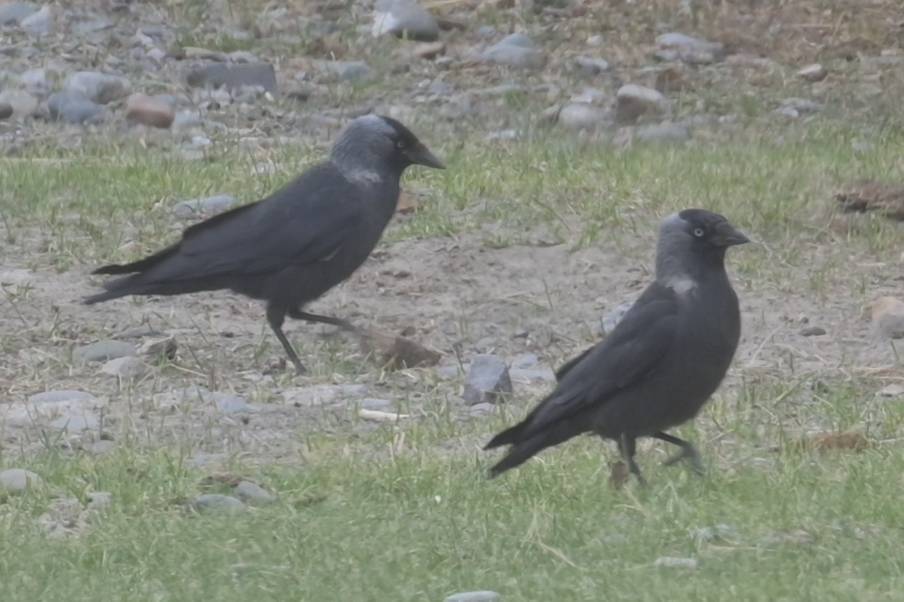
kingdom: Animalia
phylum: Chordata
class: Aves
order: Passeriformes
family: Corvidae
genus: Coloeus
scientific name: Coloeus monedula
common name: Western jackdaw
